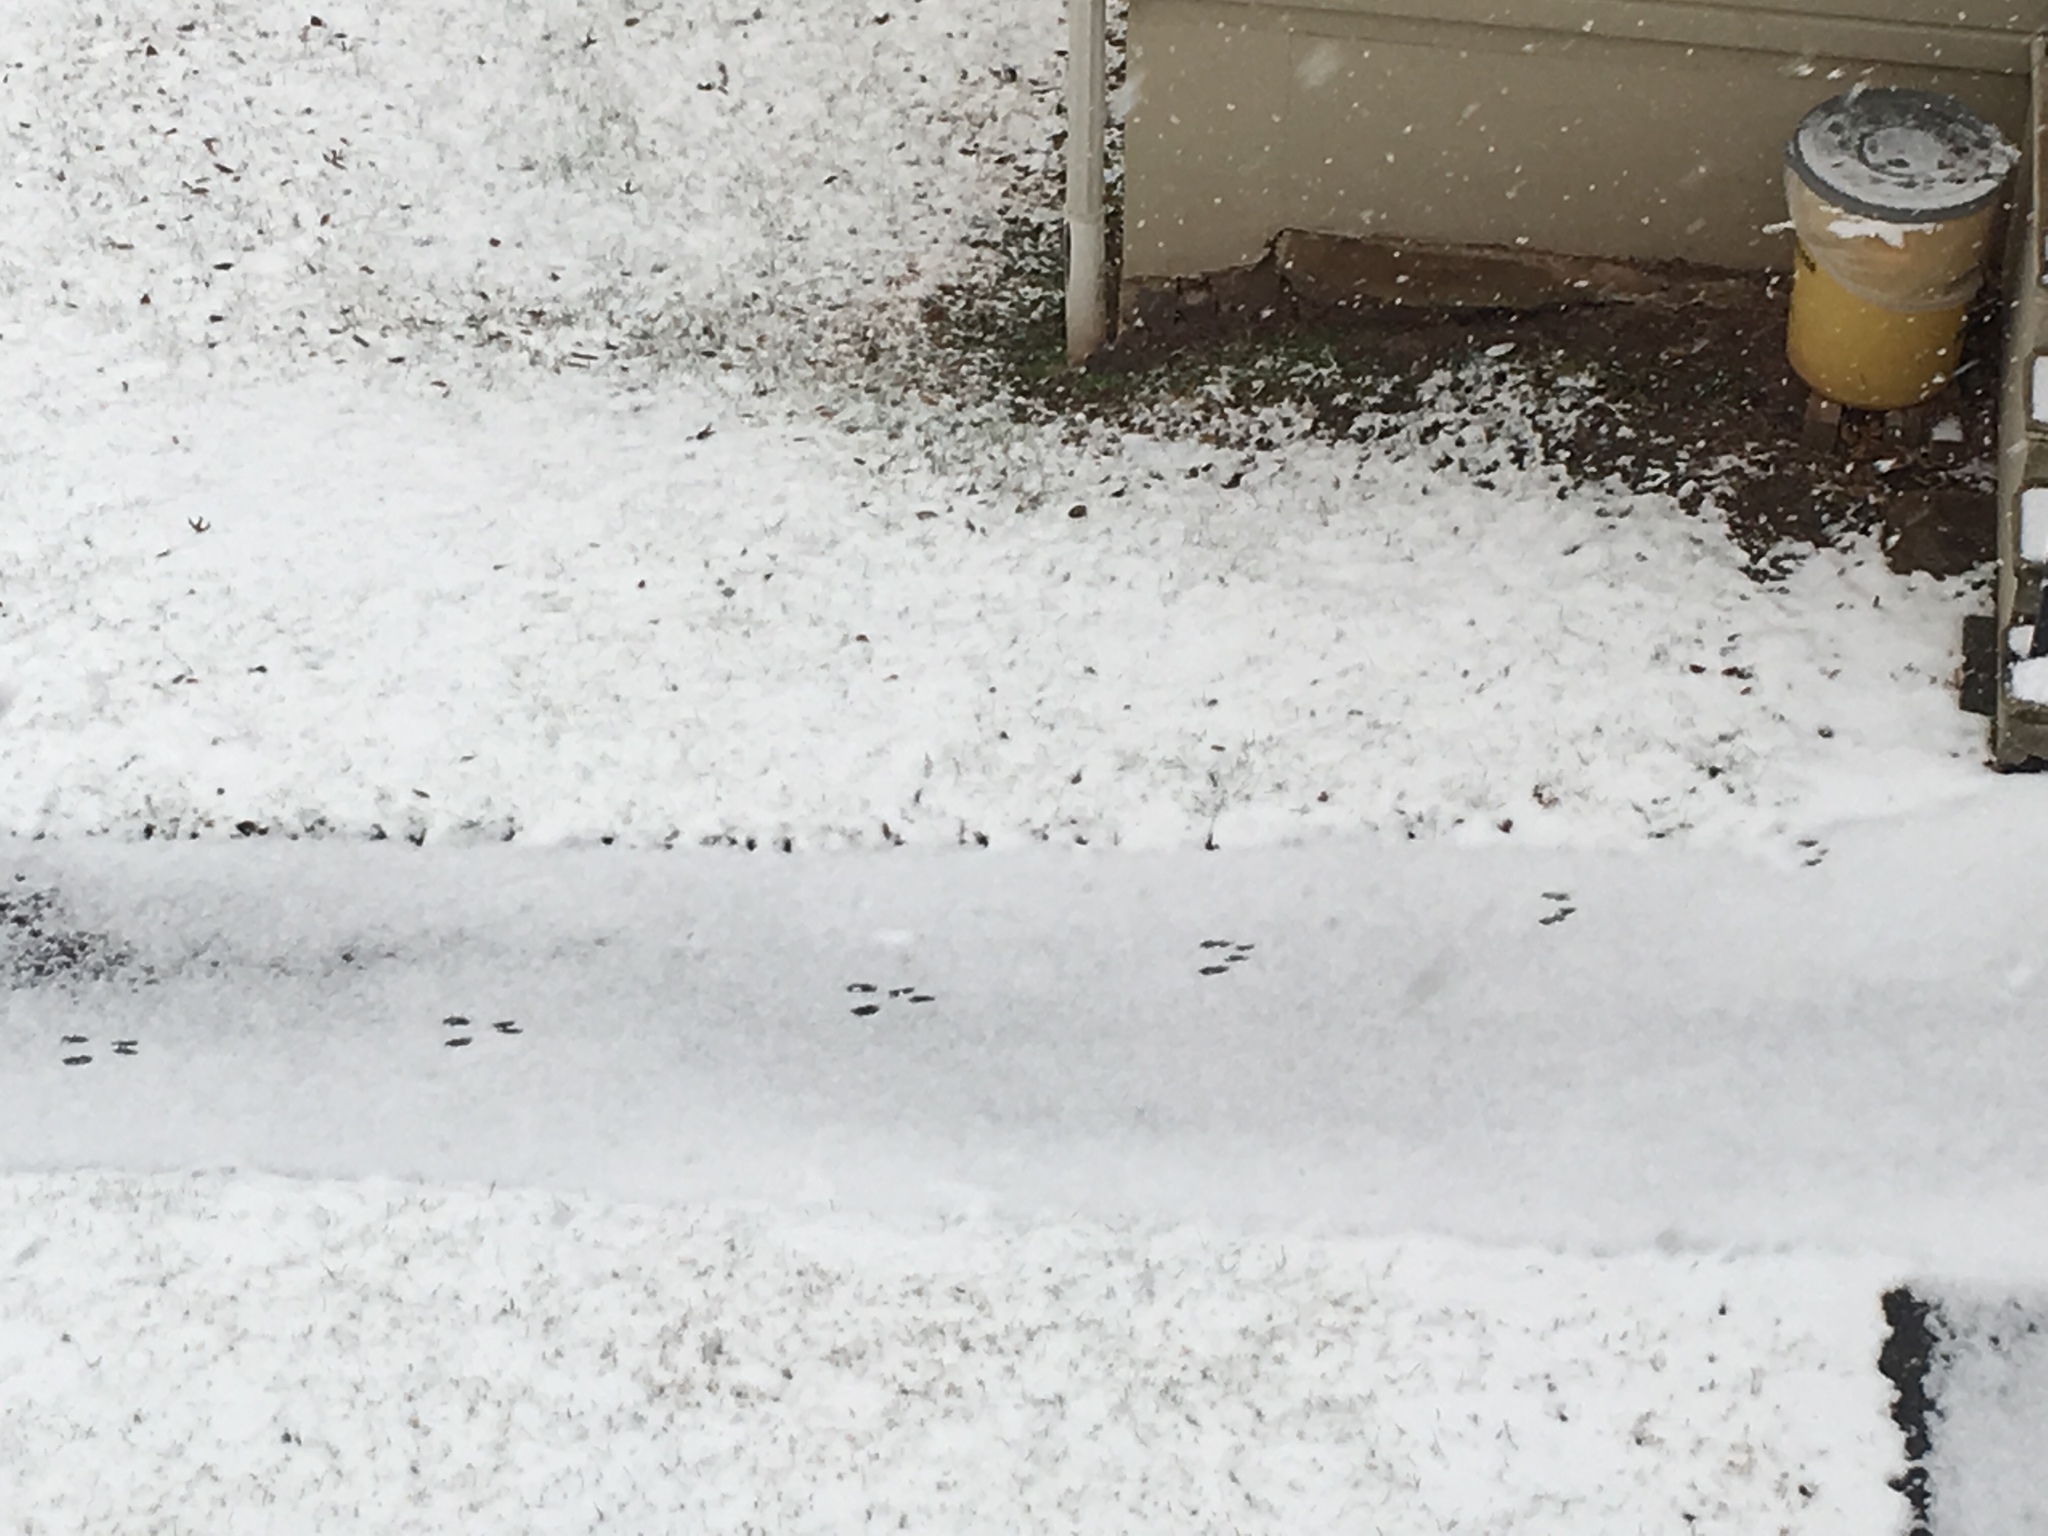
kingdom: Animalia
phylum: Chordata
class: Mammalia
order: Rodentia
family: Sciuridae
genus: Sciurus
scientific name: Sciurus carolinensis
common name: Eastern gray squirrel
